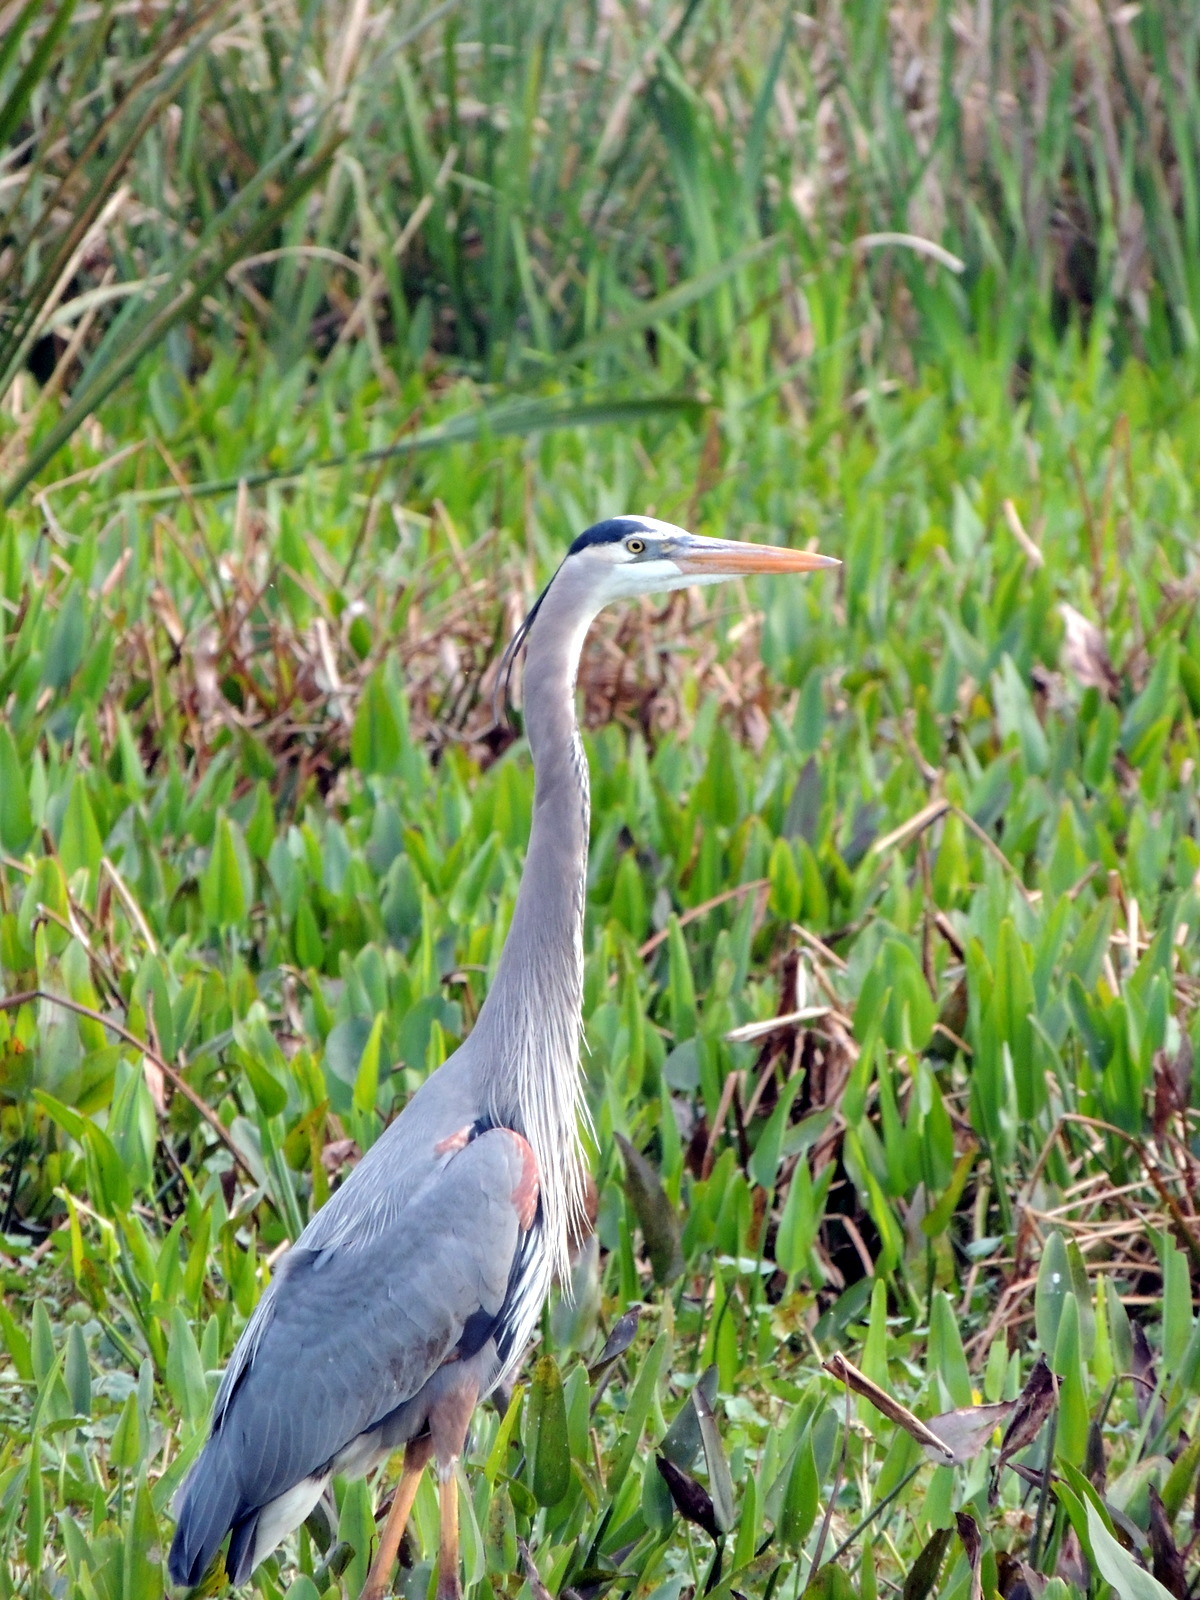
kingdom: Animalia
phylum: Chordata
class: Aves
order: Pelecaniformes
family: Ardeidae
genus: Ardea
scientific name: Ardea herodias
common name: Great blue heron
